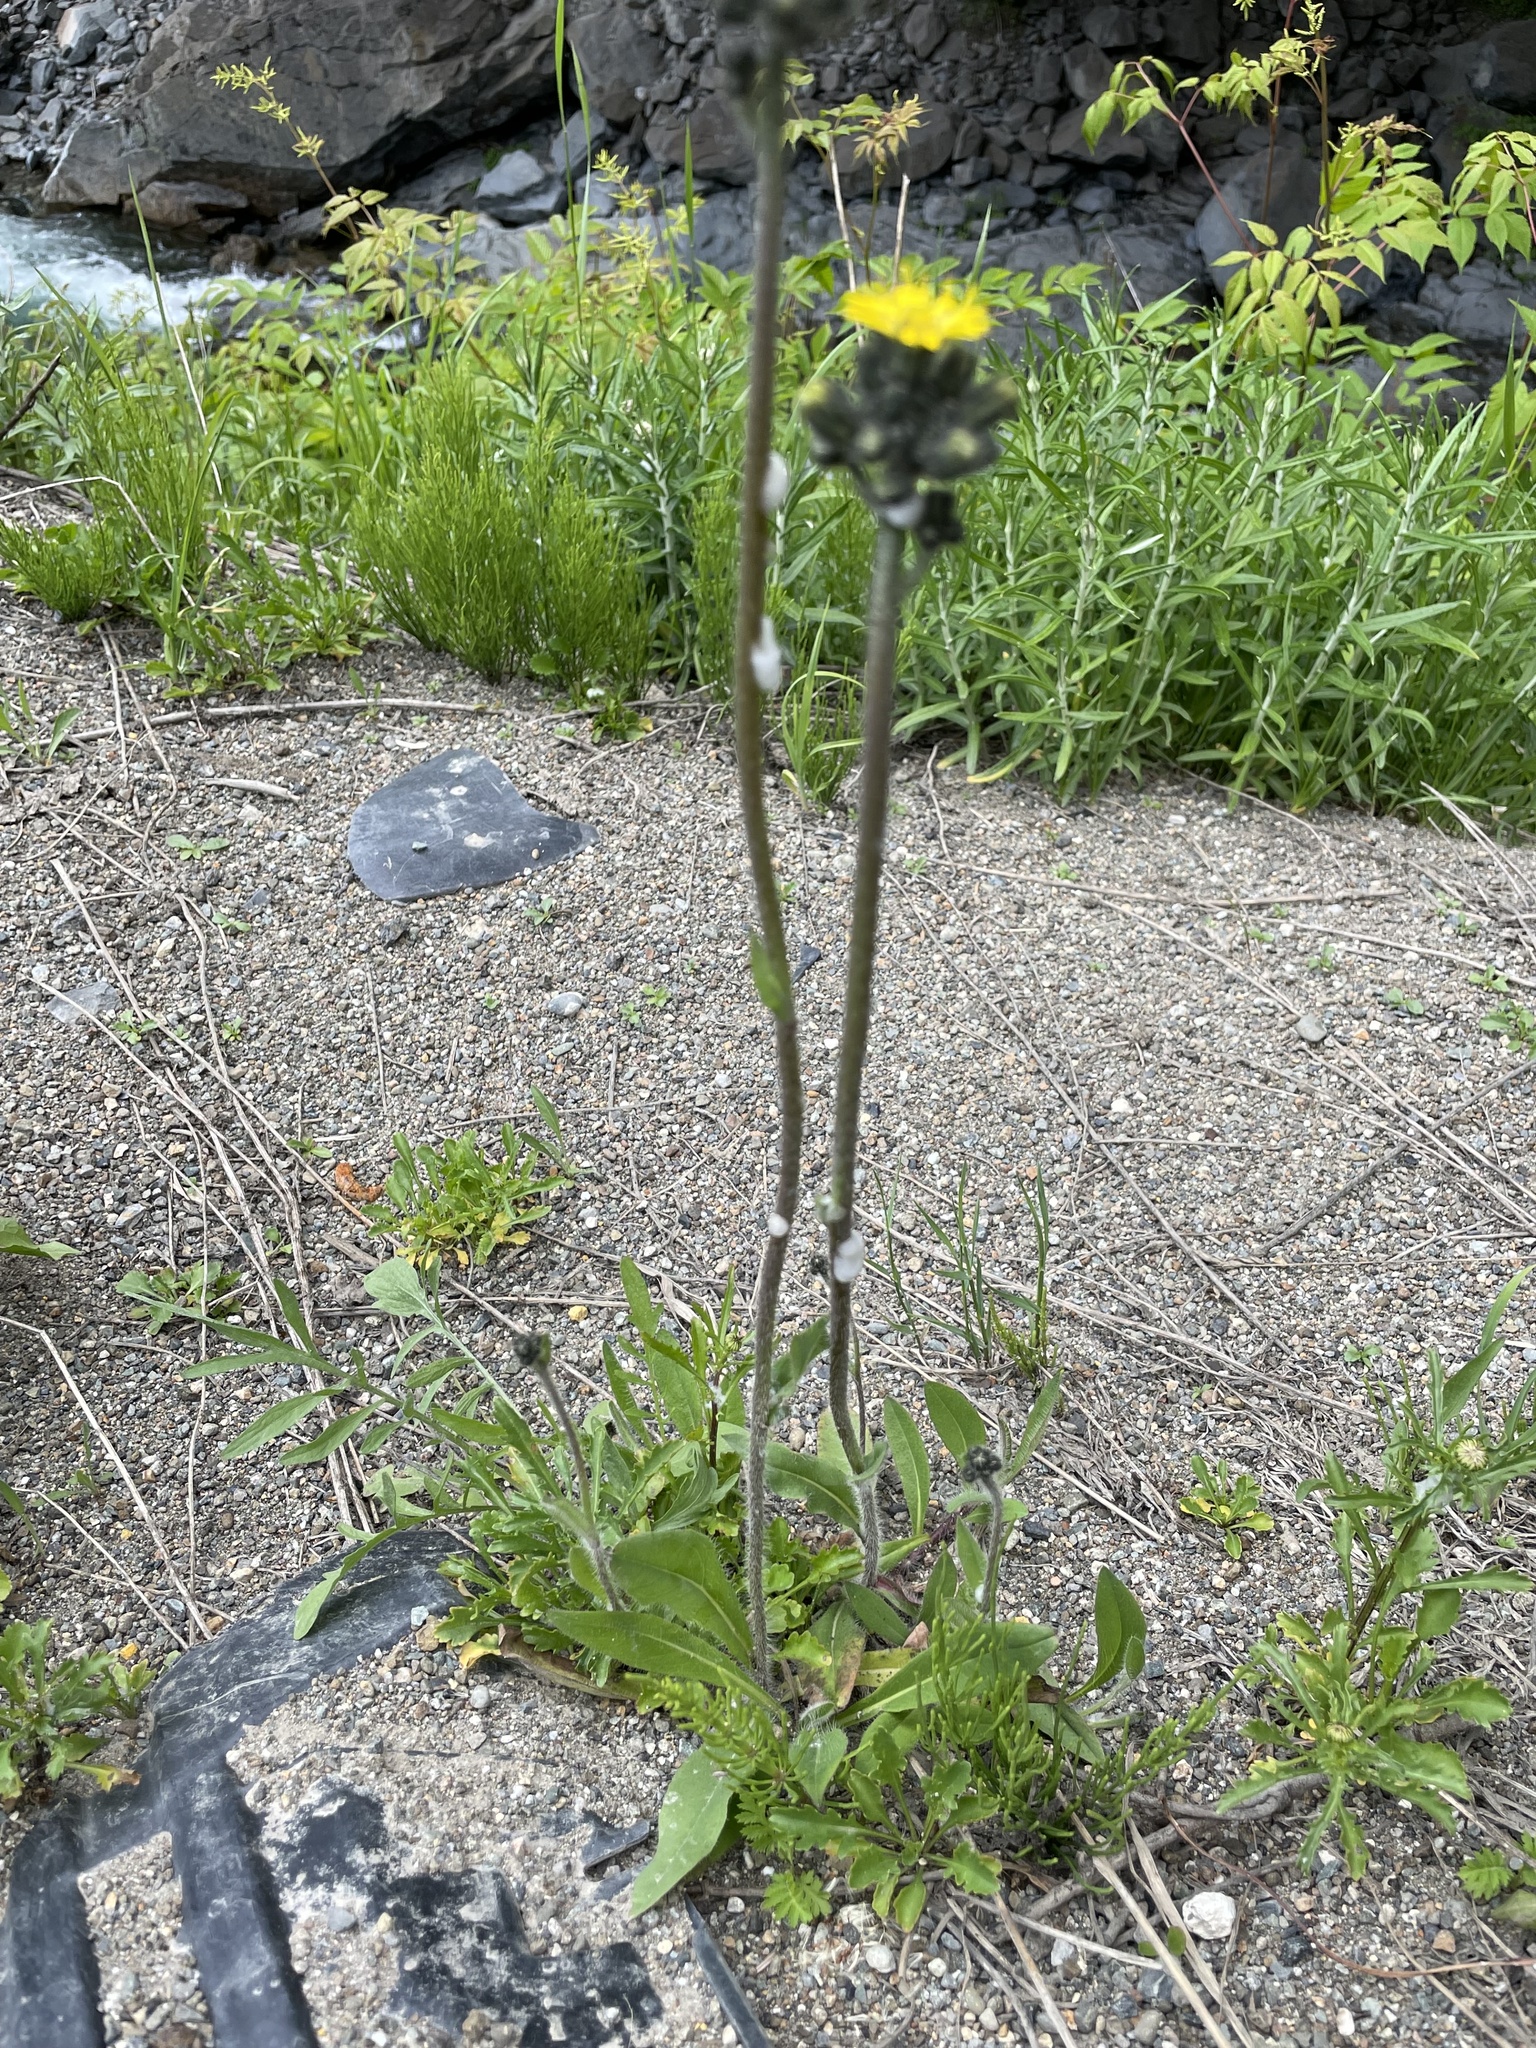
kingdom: Plantae
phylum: Tracheophyta
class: Magnoliopsida
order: Asterales
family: Asteraceae
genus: Pilosella
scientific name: Pilosella caespitosa
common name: Yellow fox-and-cubs
